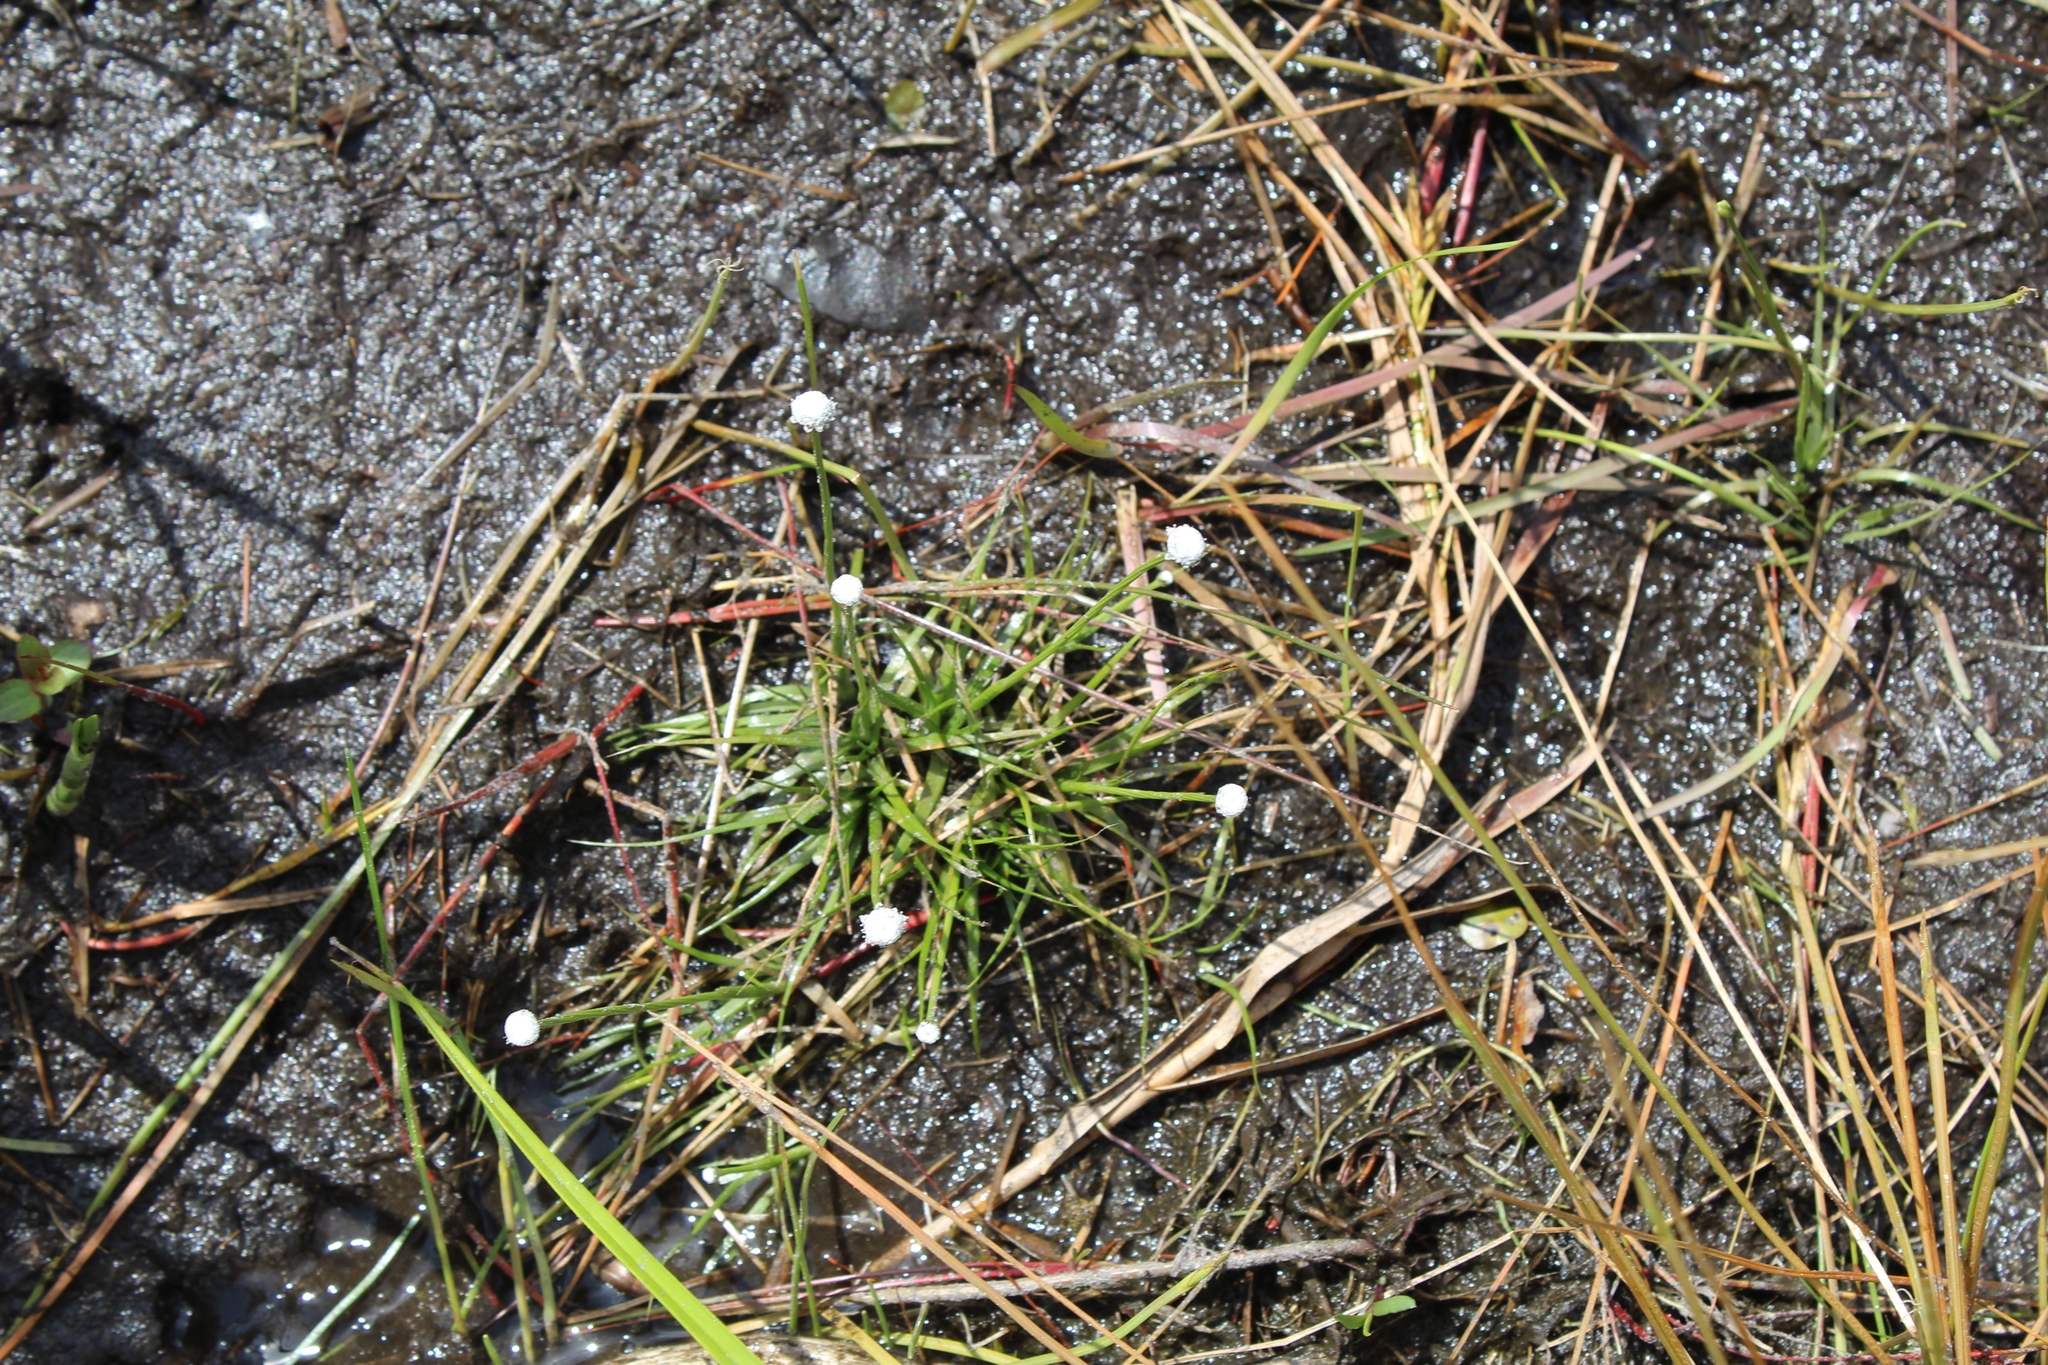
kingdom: Plantae
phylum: Tracheophyta
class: Liliopsida
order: Poales
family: Eriocaulaceae
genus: Eriocaulon
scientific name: Eriocaulon aquaticum
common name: Pipewort
